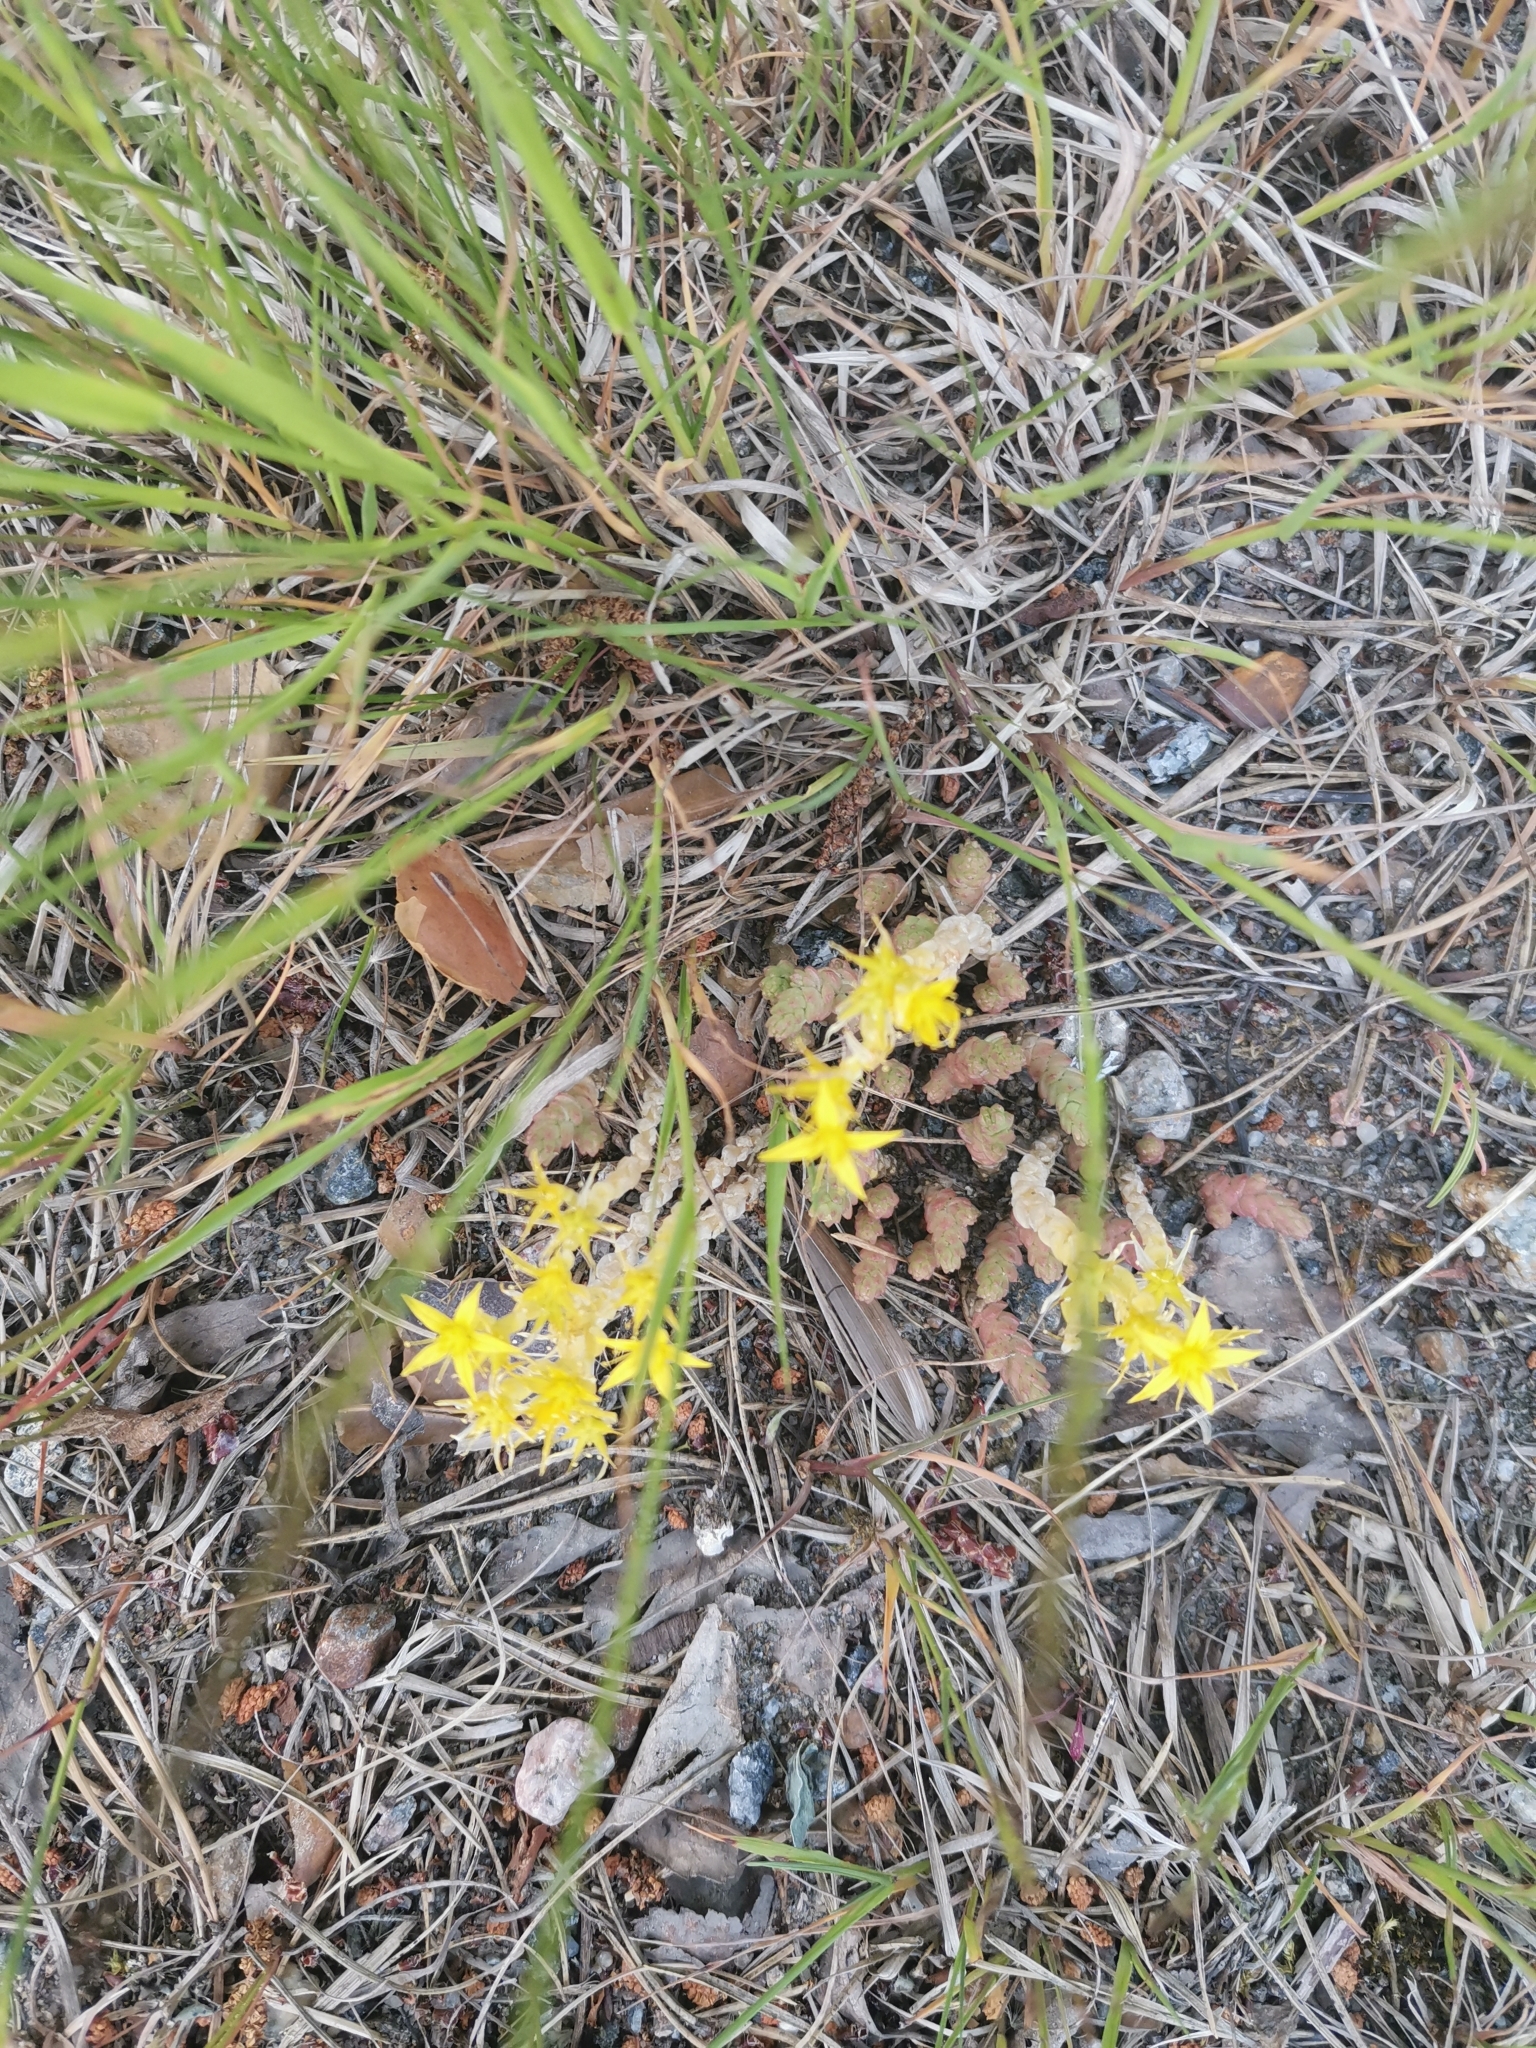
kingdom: Plantae
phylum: Tracheophyta
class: Magnoliopsida
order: Saxifragales
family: Crassulaceae
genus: Sedum
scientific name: Sedum acre
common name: Biting stonecrop
